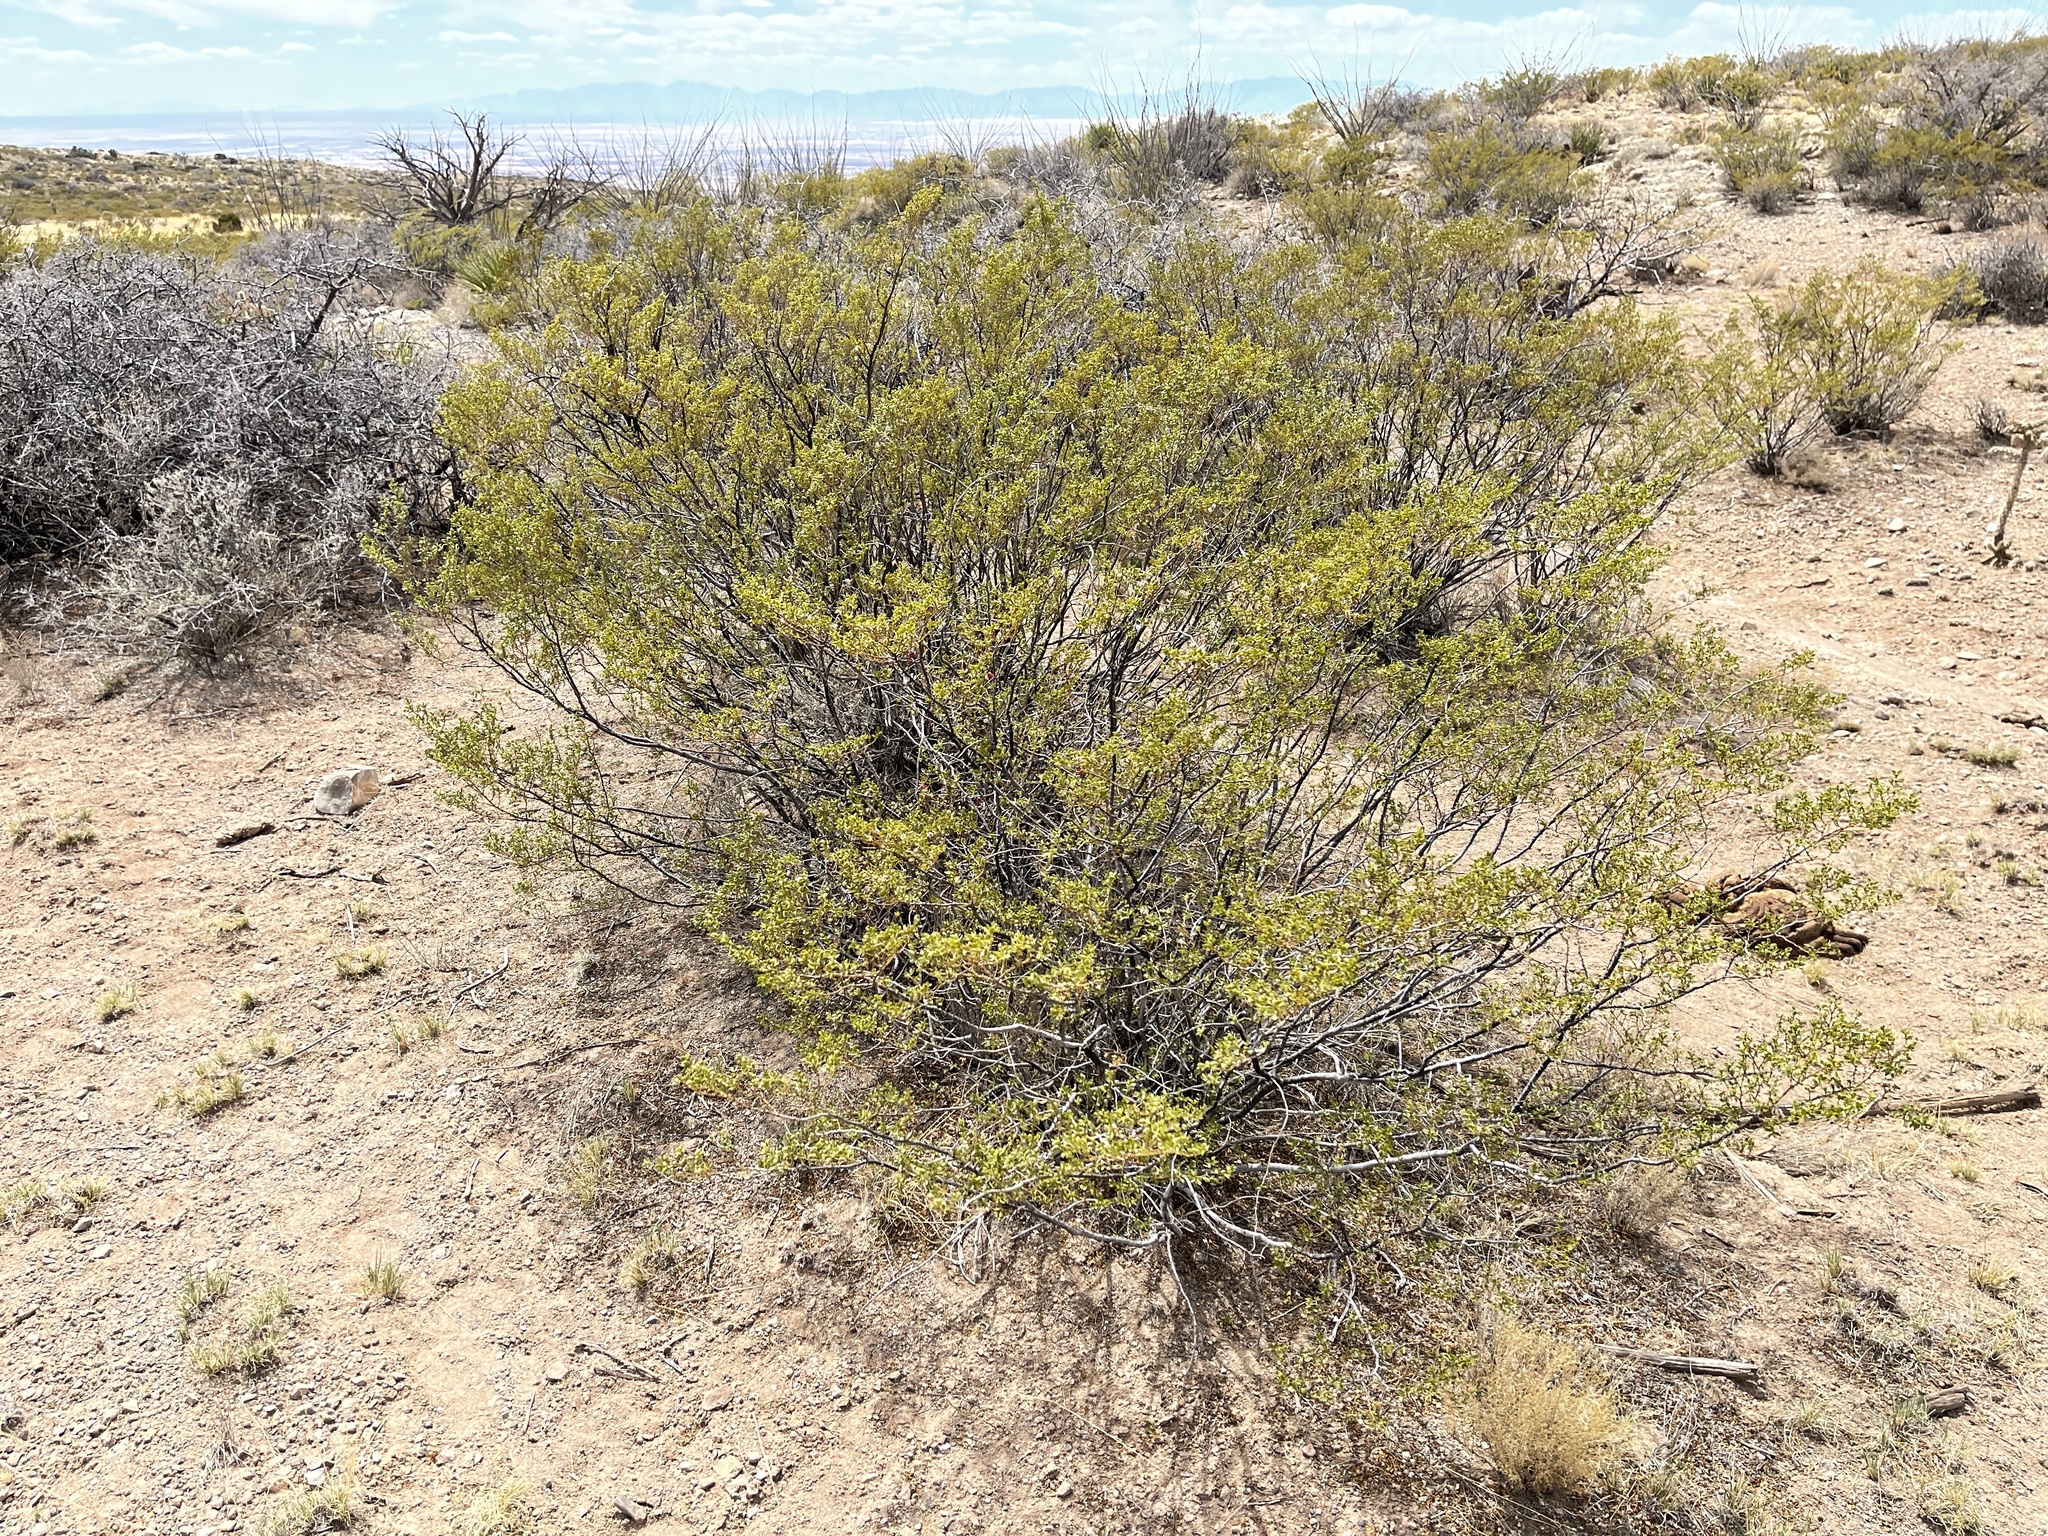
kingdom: Plantae
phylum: Tracheophyta
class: Magnoliopsida
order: Zygophyllales
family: Zygophyllaceae
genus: Larrea
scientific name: Larrea tridentata
